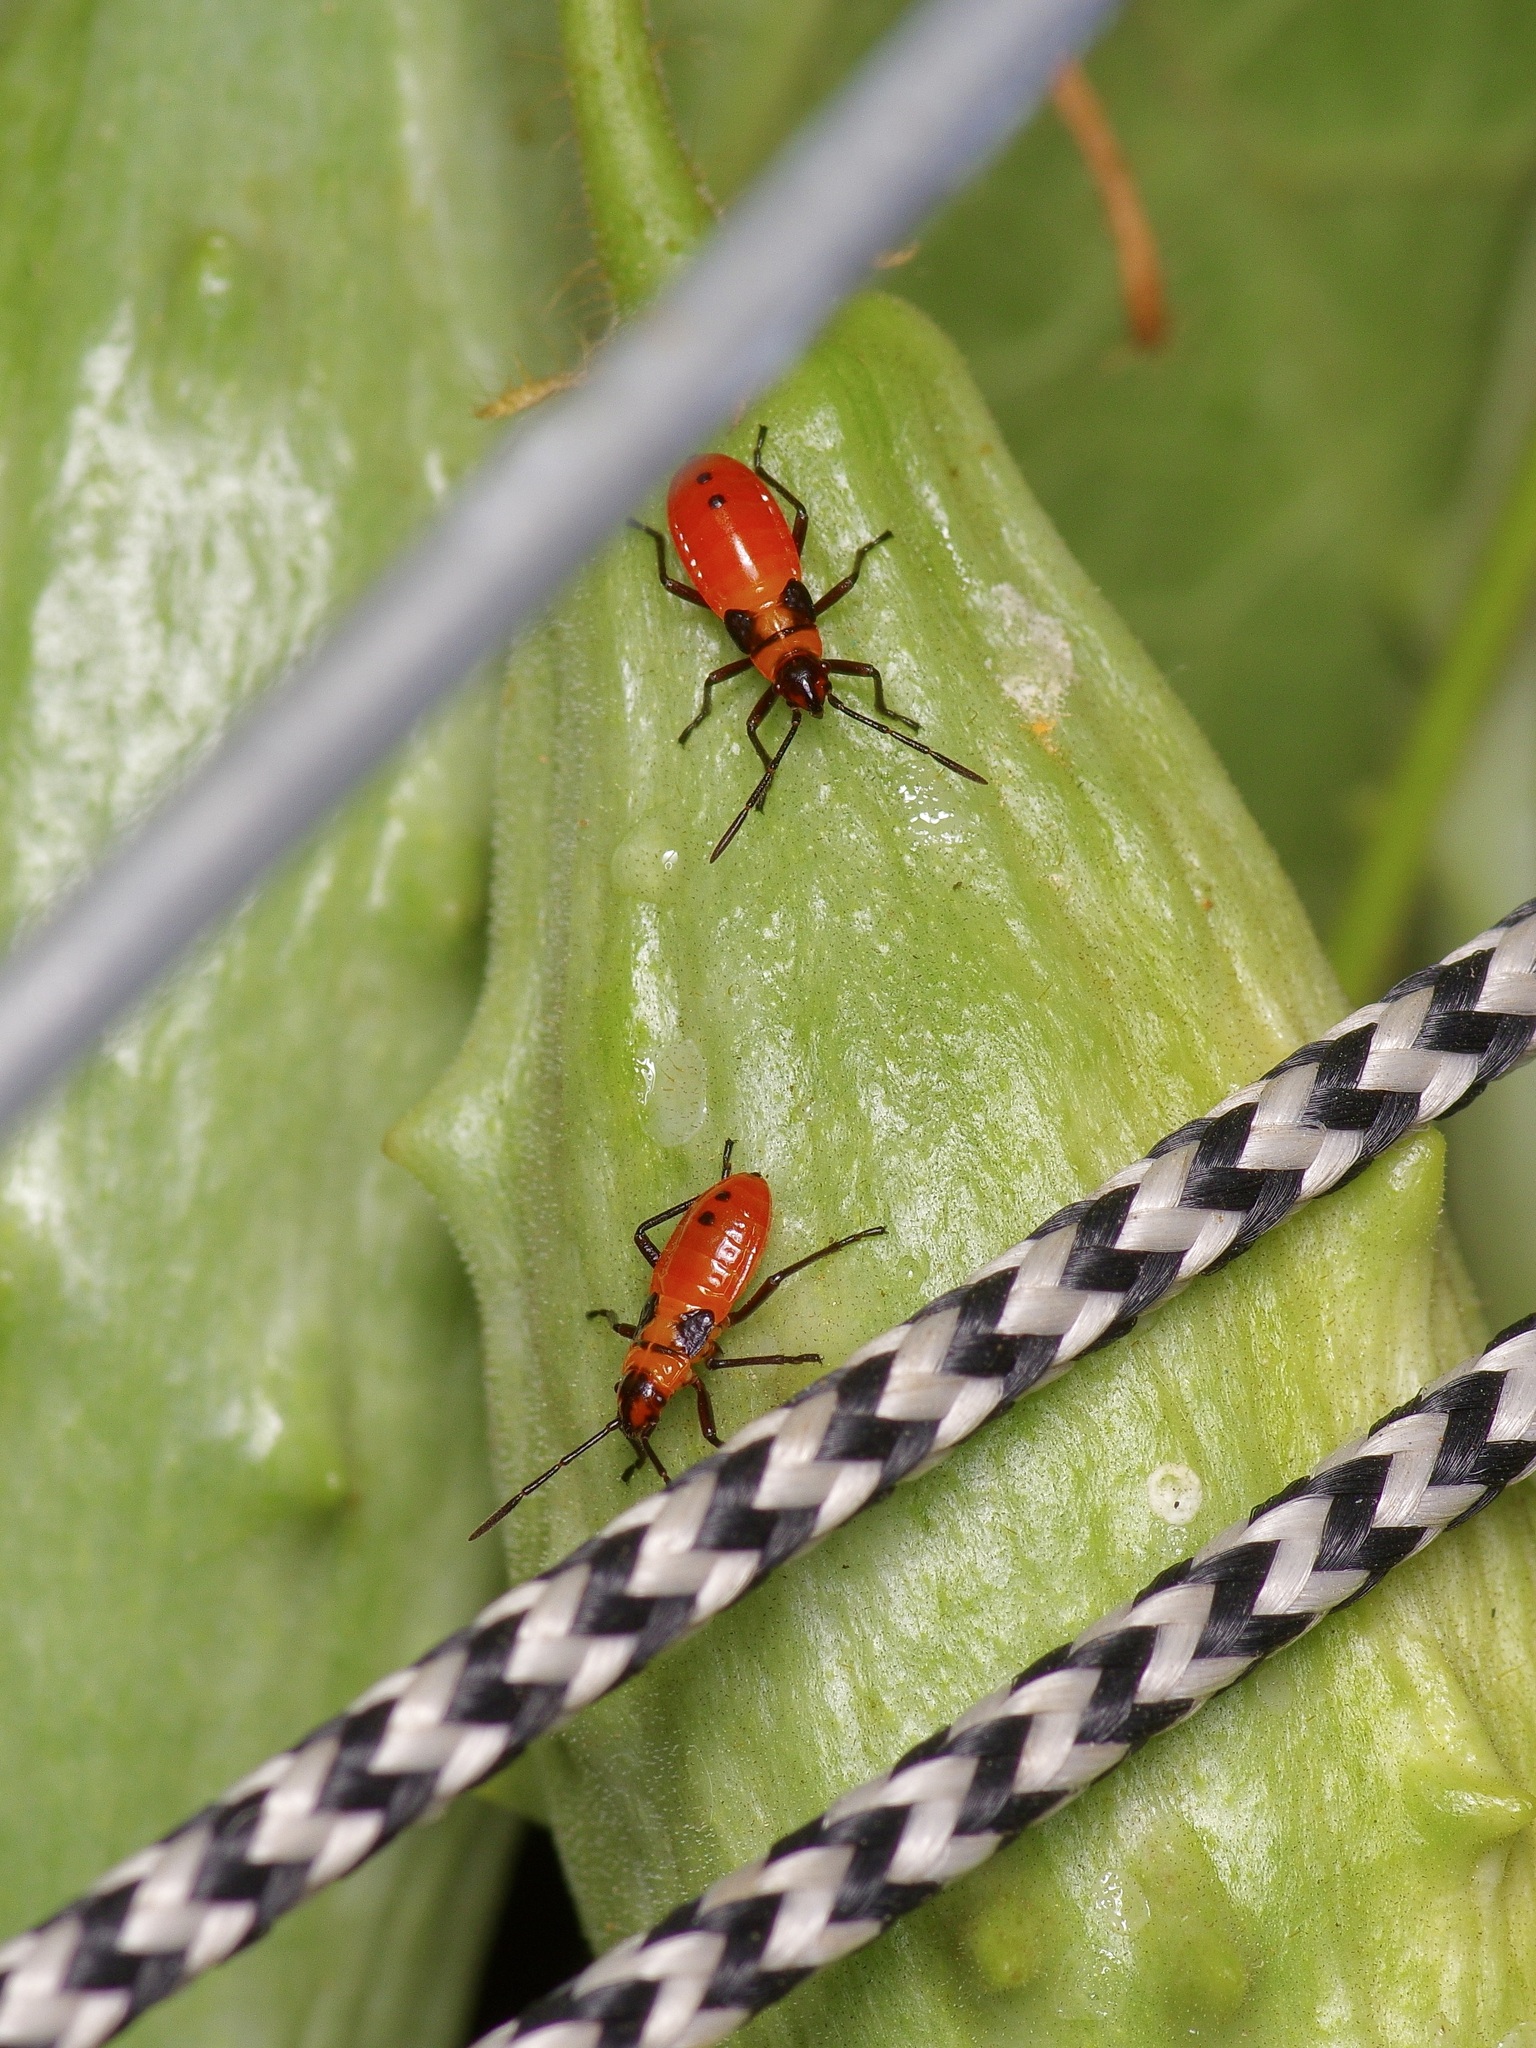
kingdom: Animalia
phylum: Arthropoda
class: Insecta
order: Hemiptera
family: Lygaeidae
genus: Oncopeltus
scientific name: Oncopeltus fasciatus
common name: Large milkweed bug
